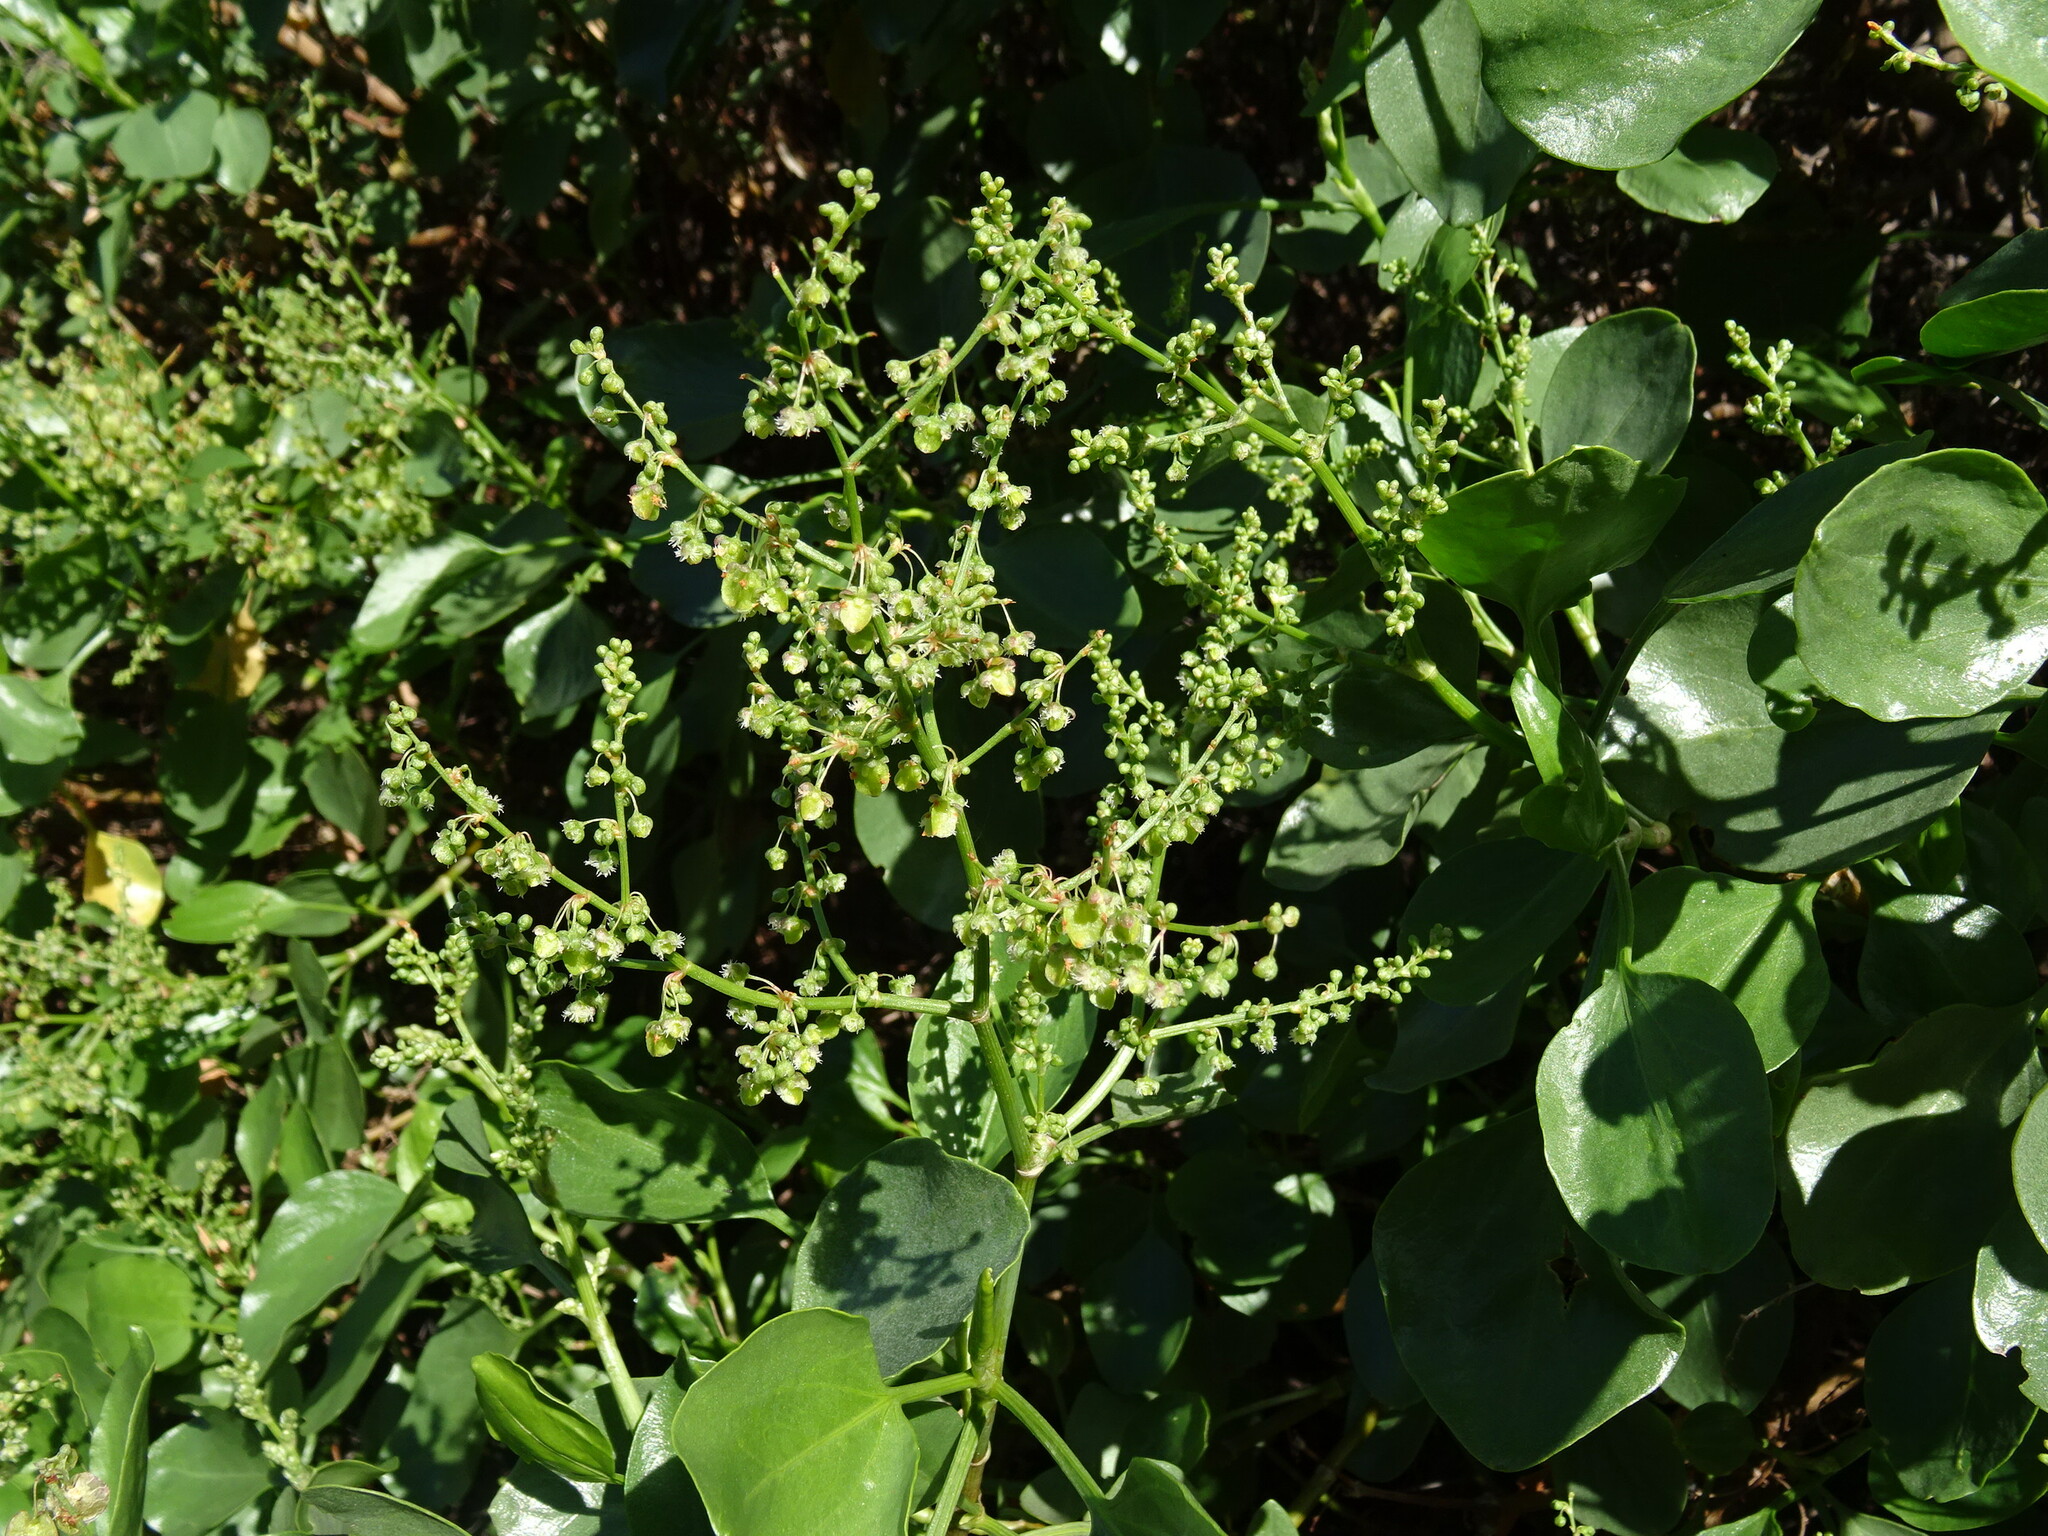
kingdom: Plantae
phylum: Tracheophyta
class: Magnoliopsida
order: Caryophyllales
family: Polygonaceae
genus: Rumex
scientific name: Rumex lunaria
